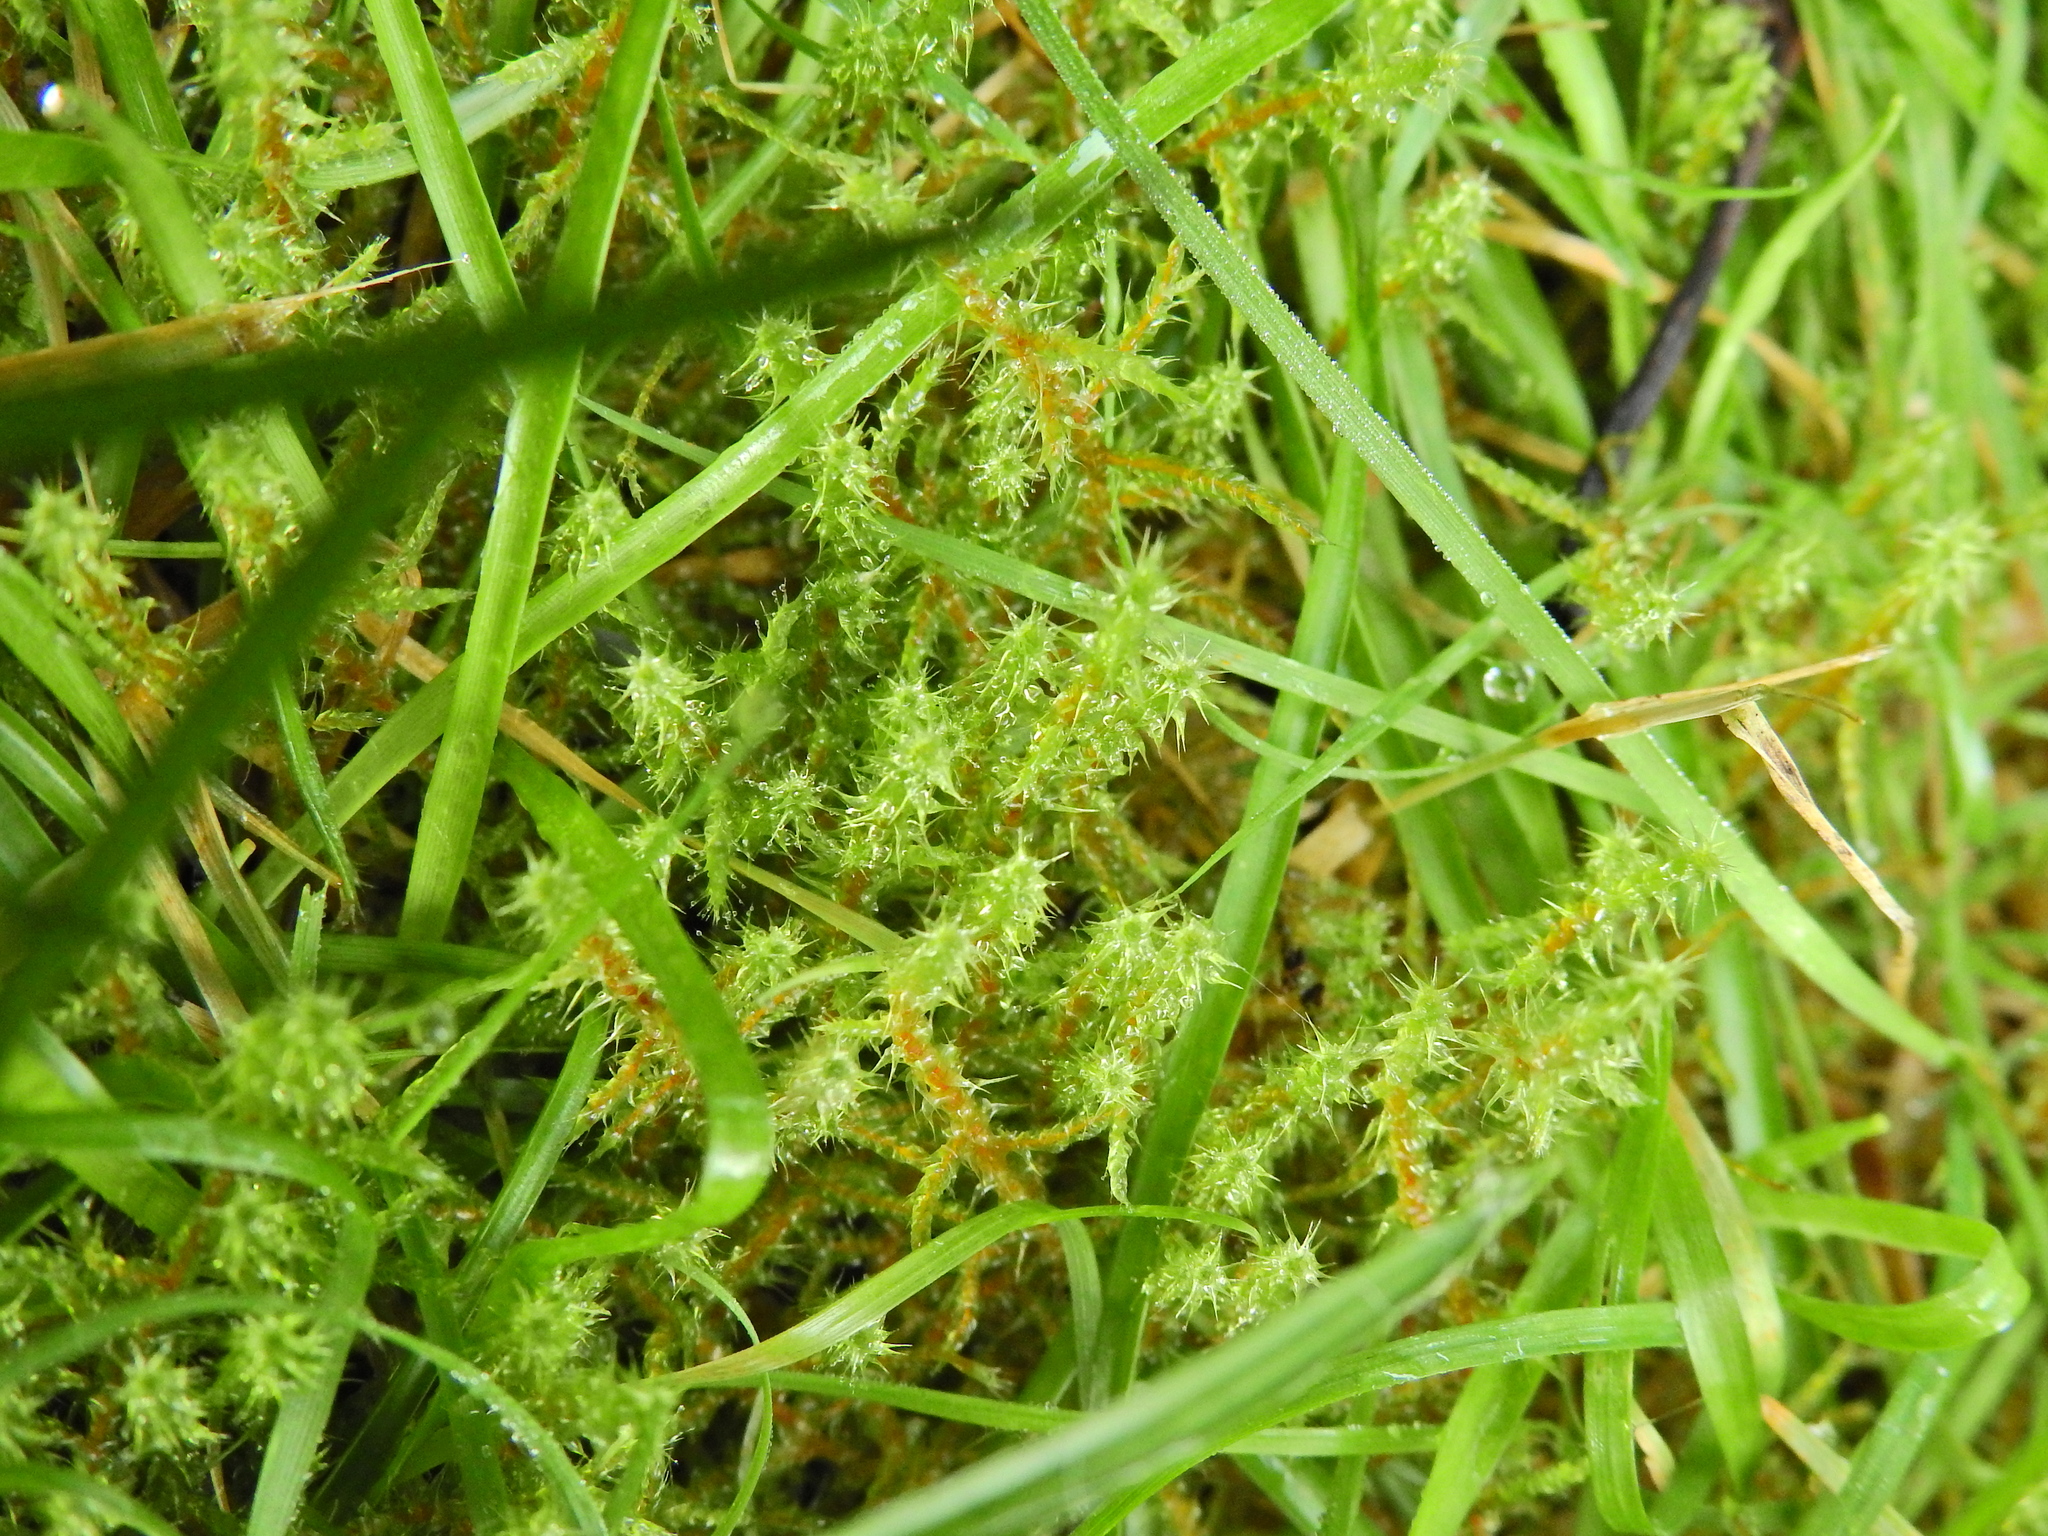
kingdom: Plantae
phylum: Bryophyta
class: Bryopsida
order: Hypnales
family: Hylocomiaceae
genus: Rhytidiadelphus
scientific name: Rhytidiadelphus squarrosus
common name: Springy turf-moss
